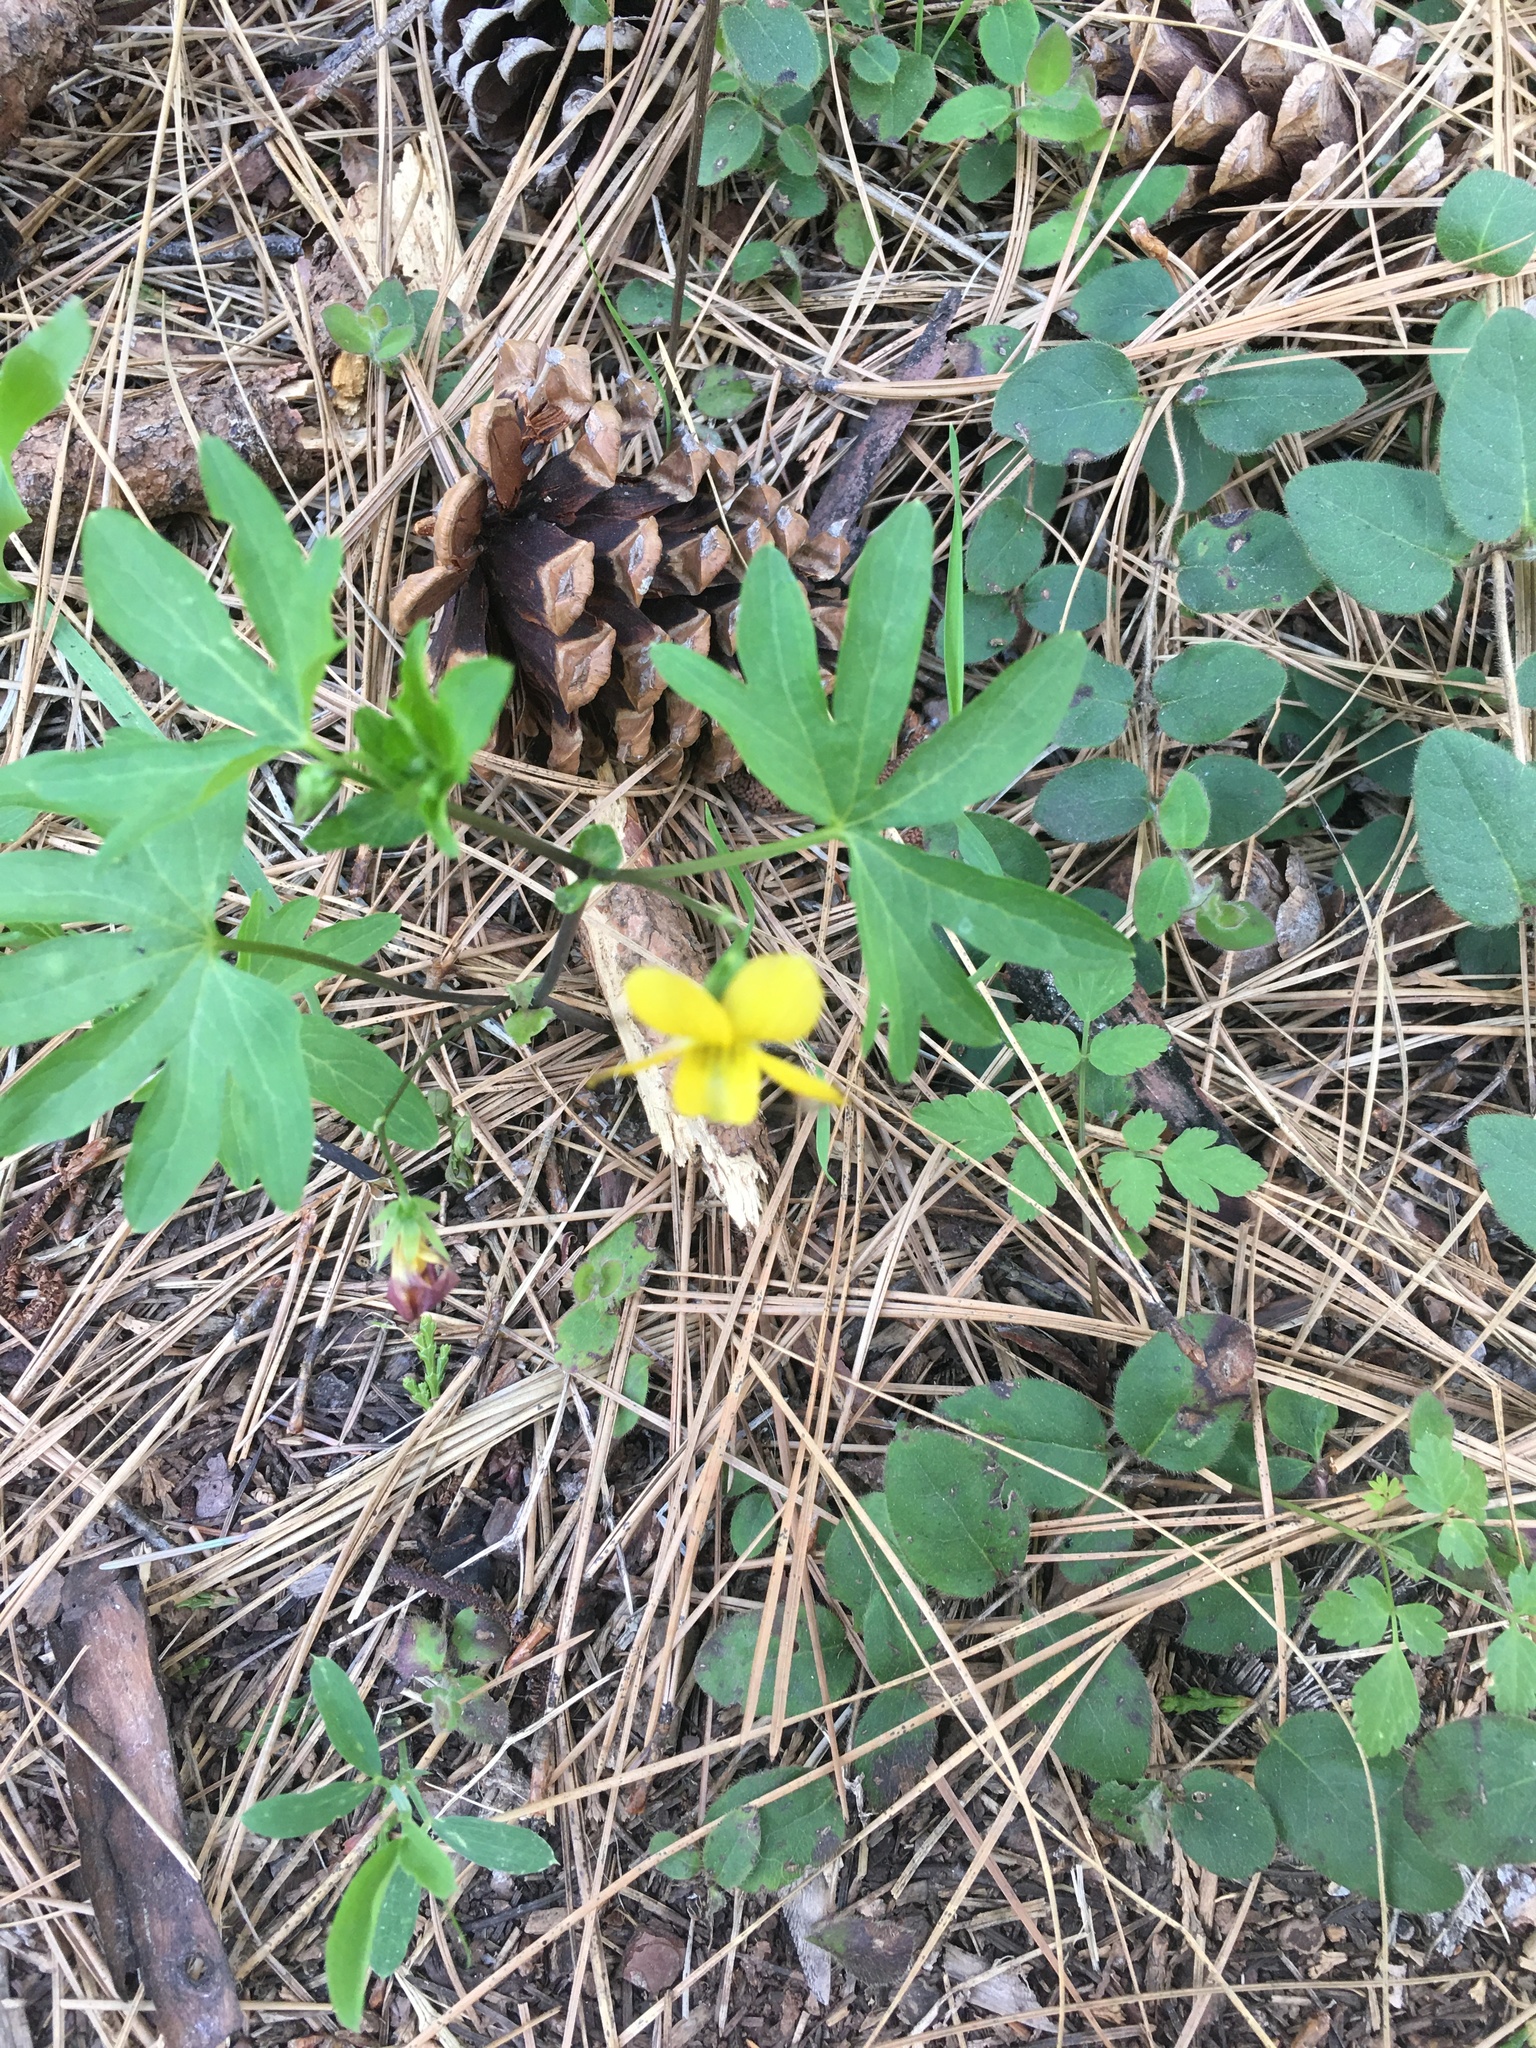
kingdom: Plantae
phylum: Tracheophyta
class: Magnoliopsida
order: Malpighiales
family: Violaceae
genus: Viola
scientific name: Viola lobata
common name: Pine violet
